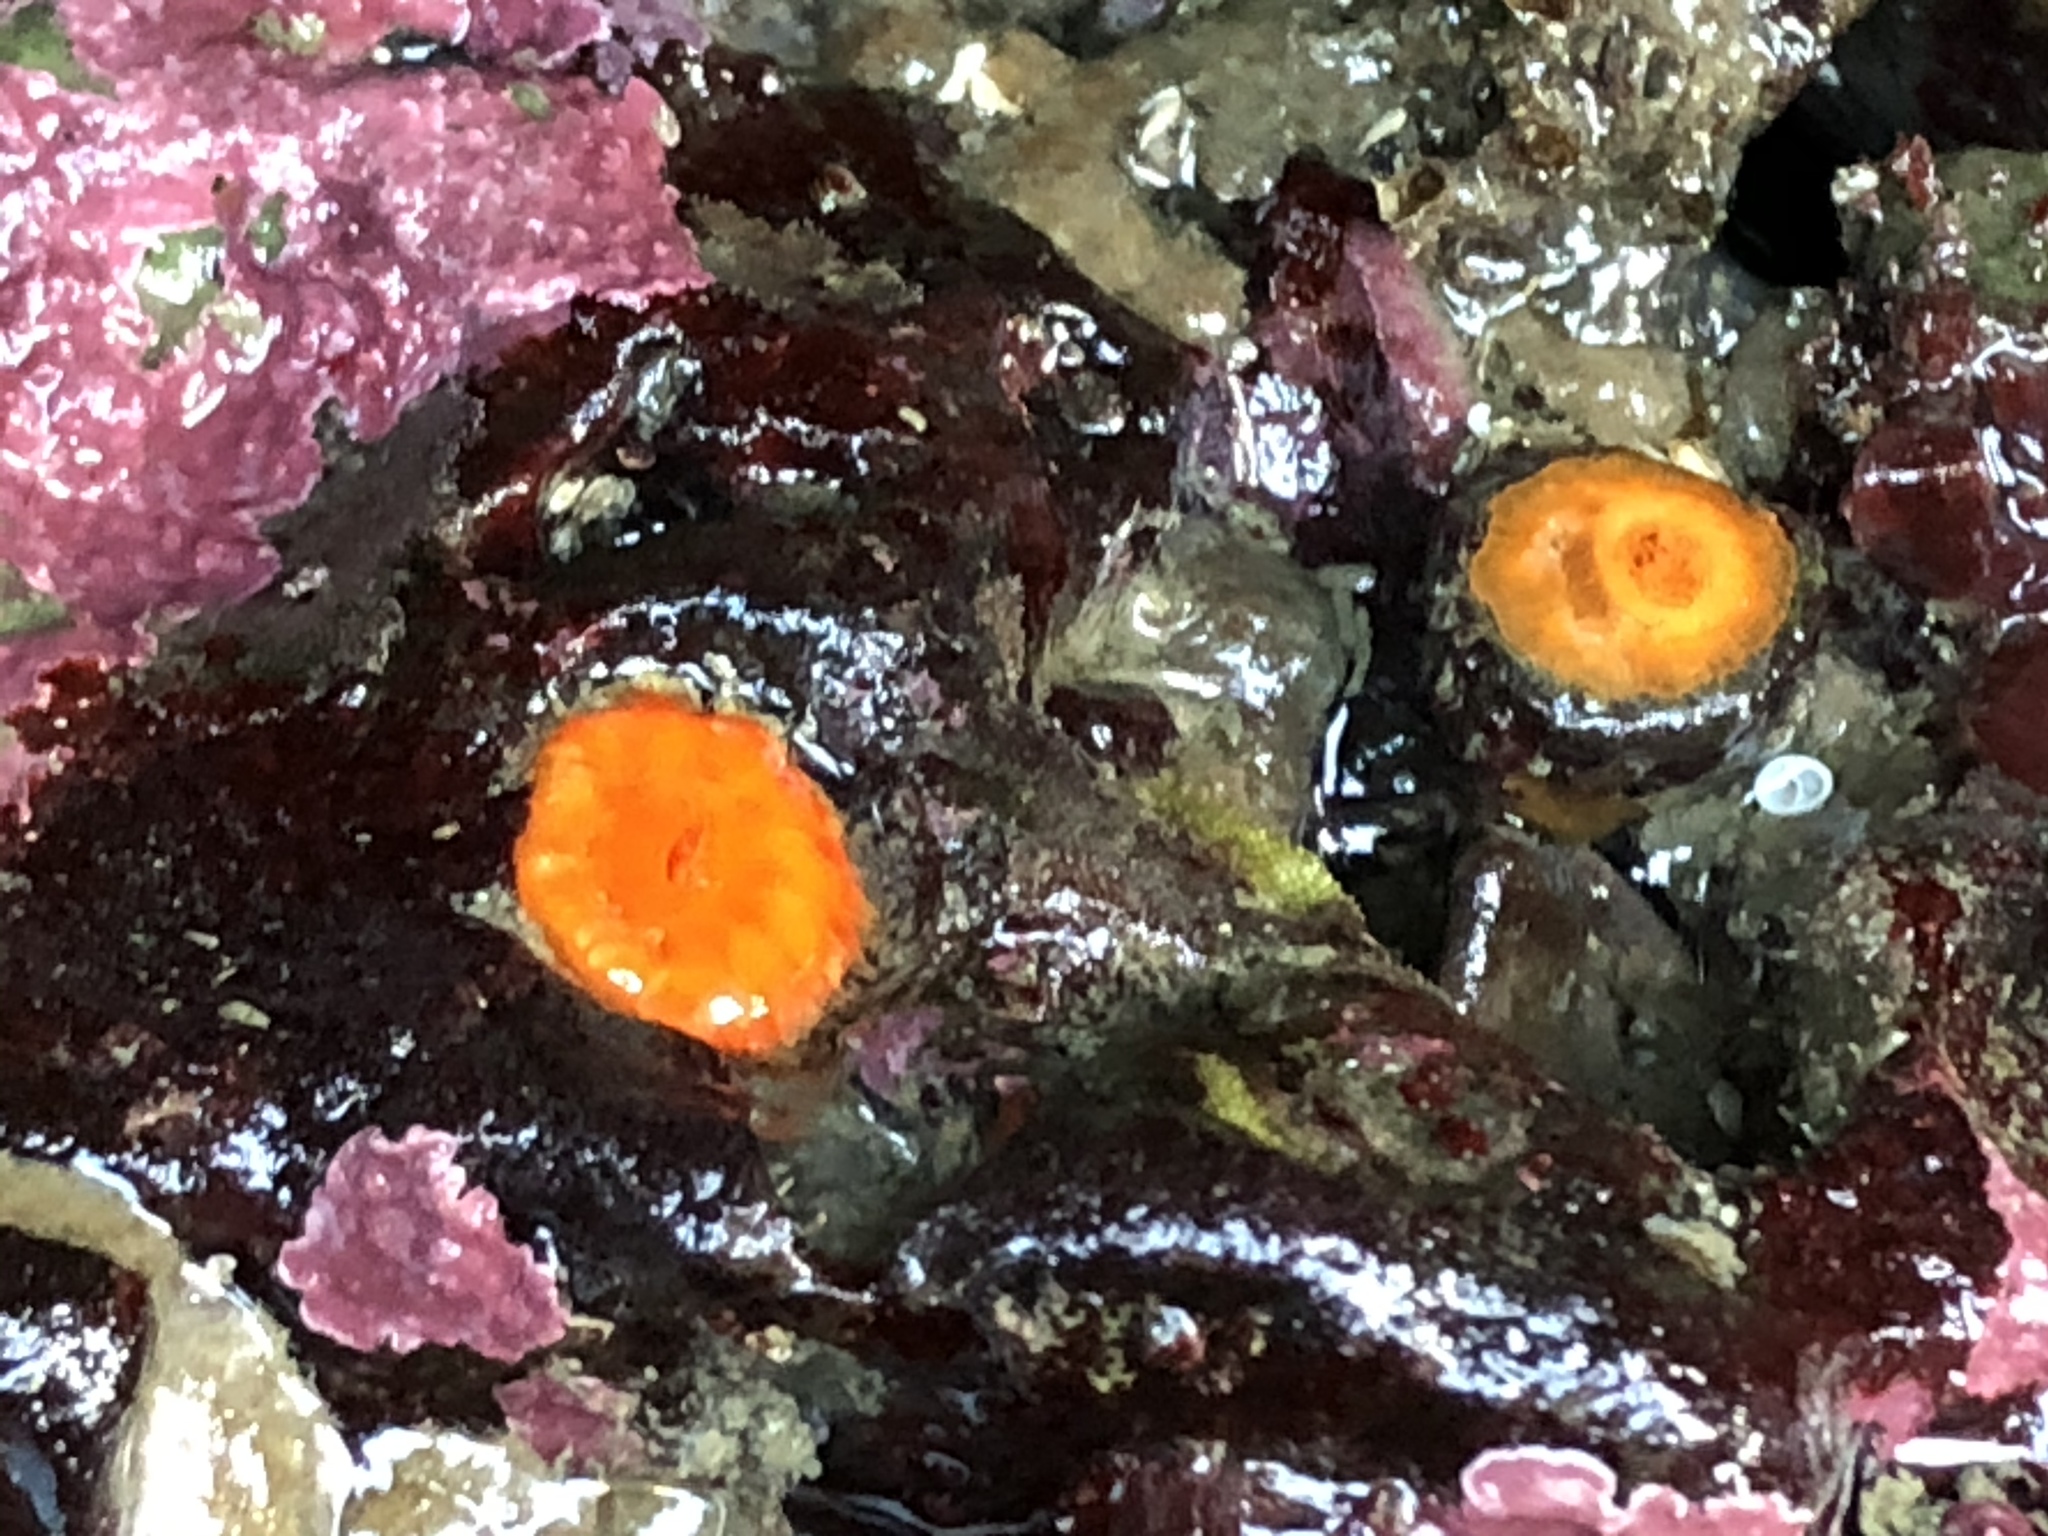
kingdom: Animalia
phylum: Cnidaria
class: Anthozoa
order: Scleractinia
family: Dendrophylliidae
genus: Balanophyllia
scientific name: Balanophyllia elegans
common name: Orange stony coral
